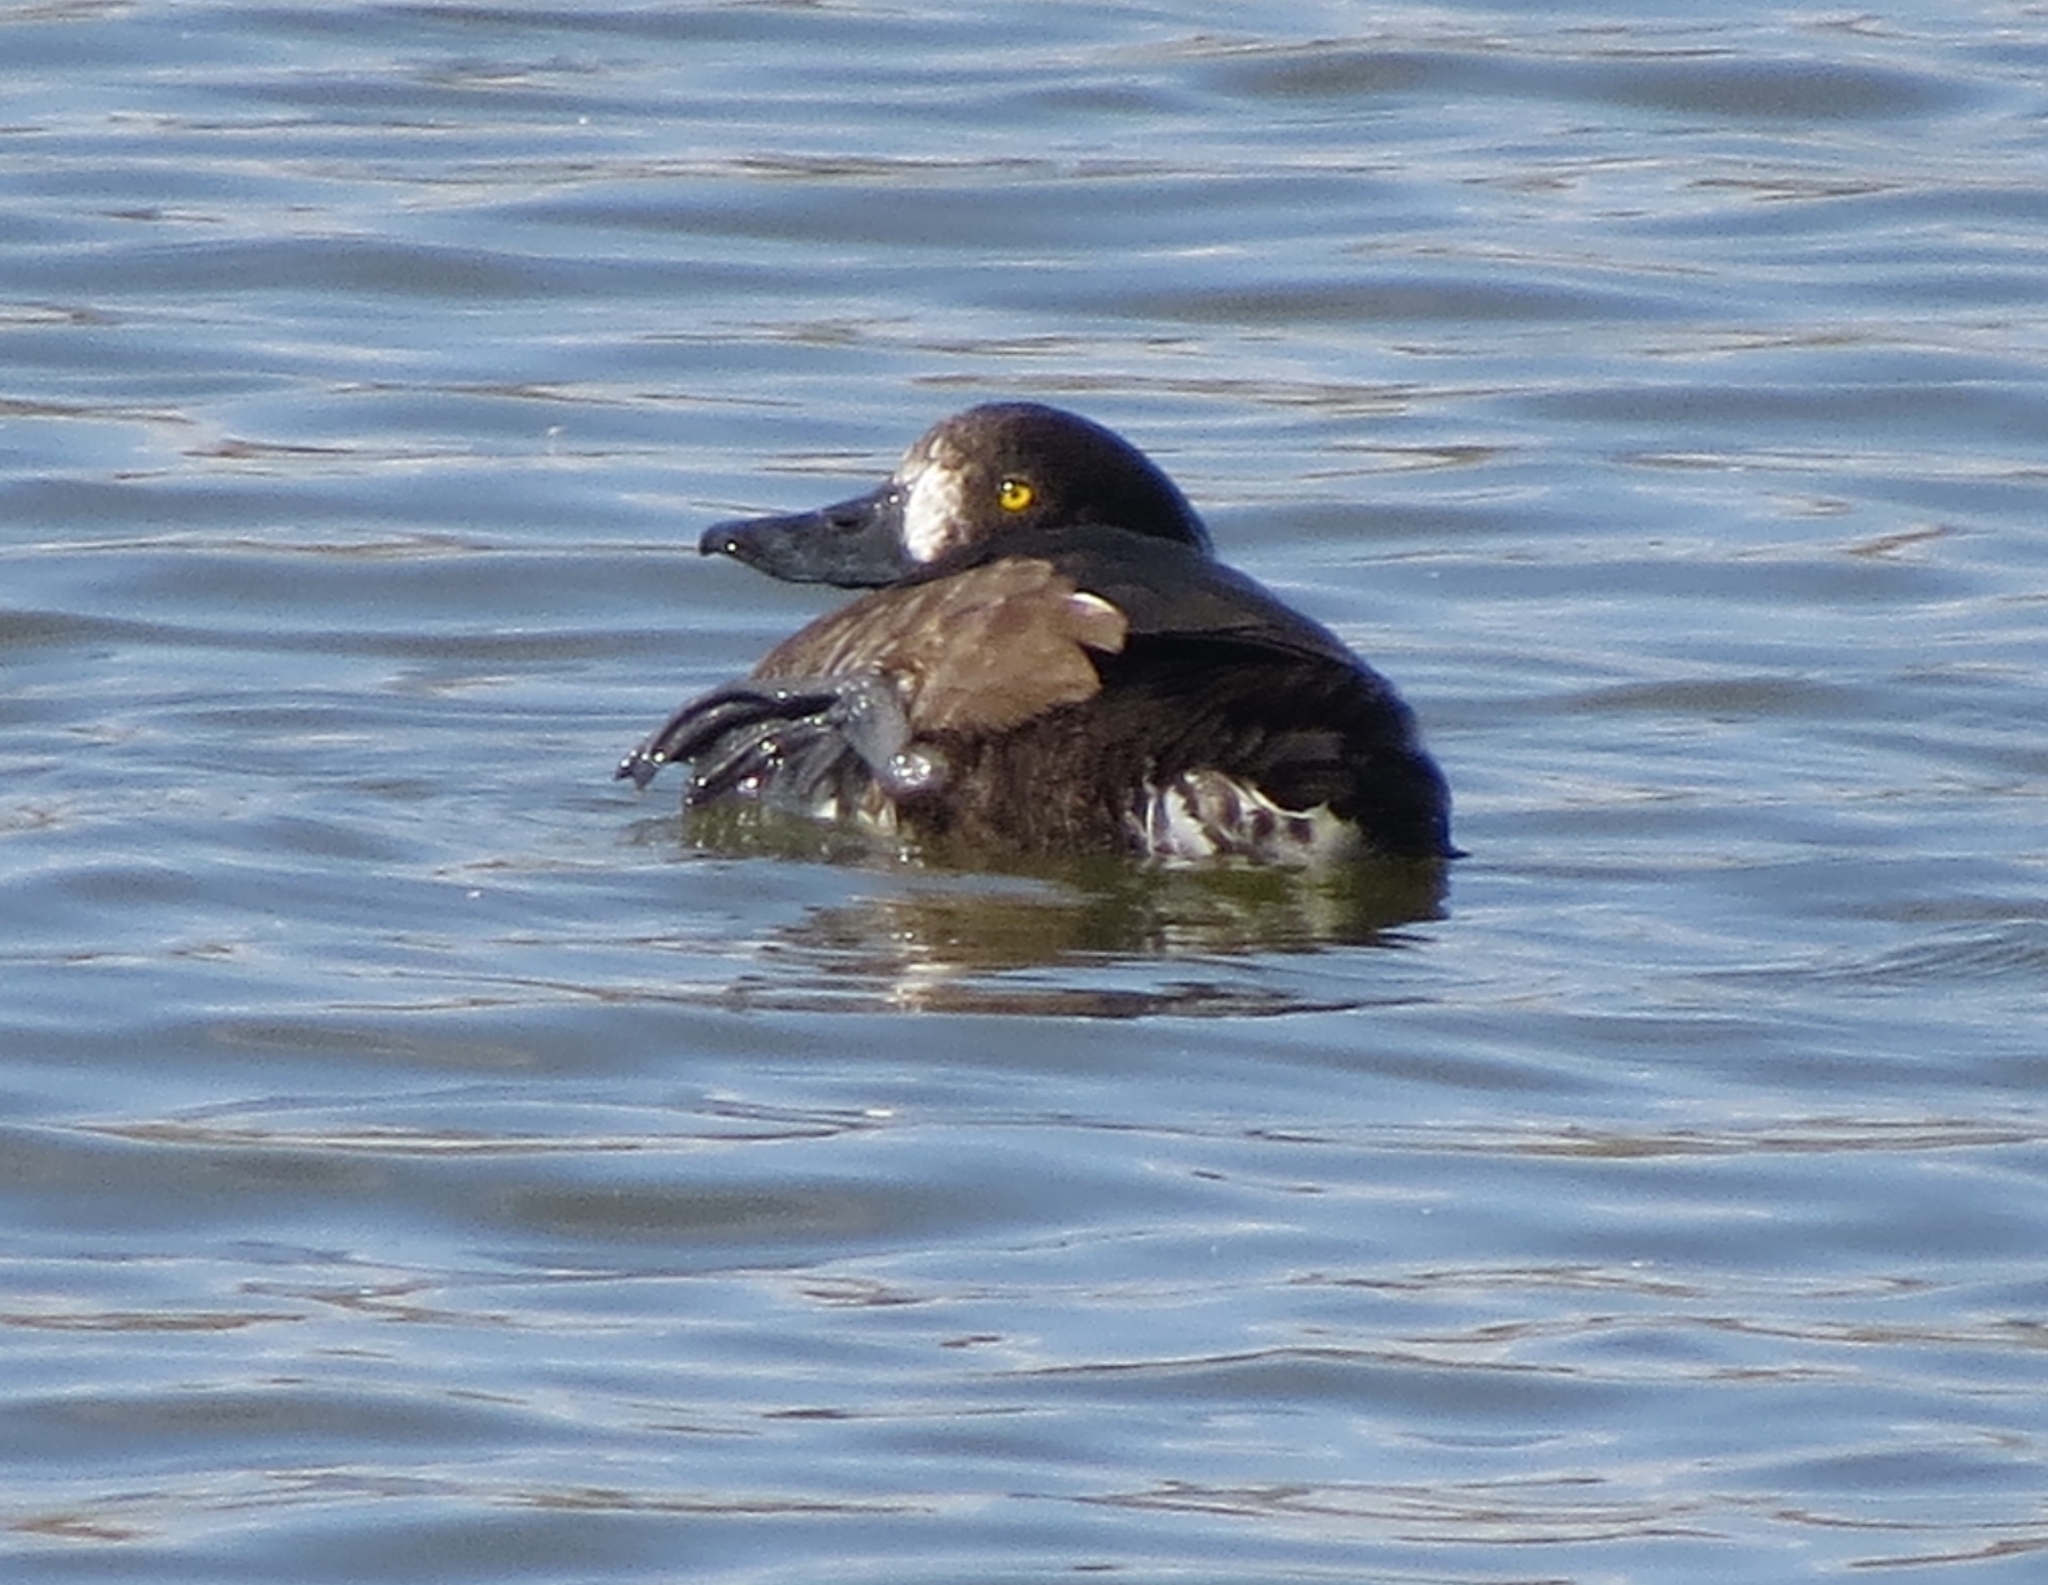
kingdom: Animalia
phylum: Chordata
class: Aves
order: Anseriformes
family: Anatidae
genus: Aythya
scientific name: Aythya marila
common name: Greater scaup
